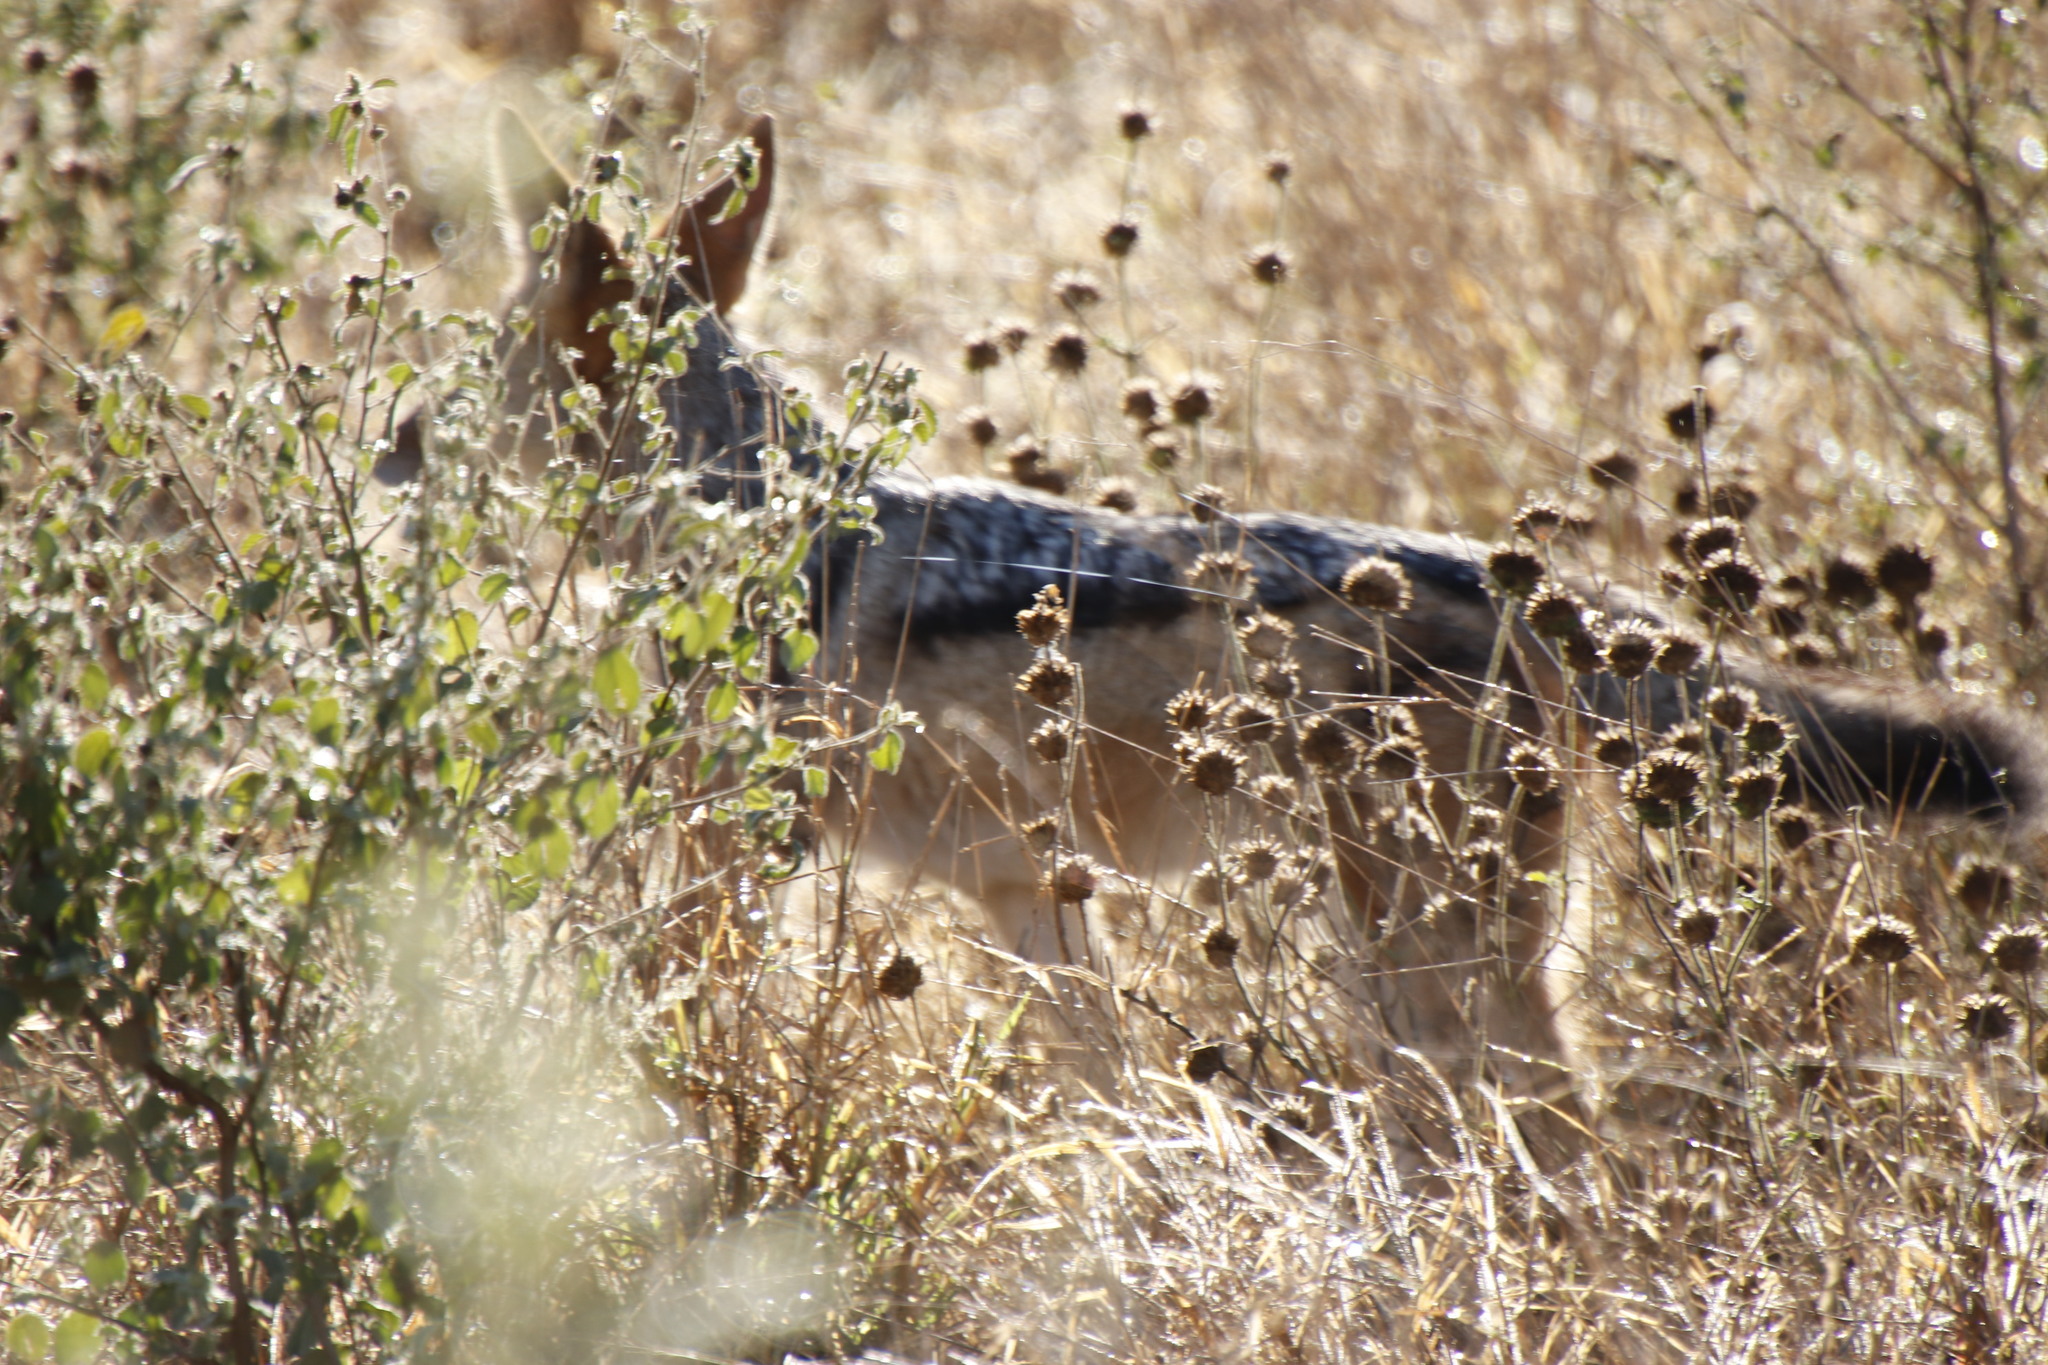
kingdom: Animalia
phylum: Chordata
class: Mammalia
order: Carnivora
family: Canidae
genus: Lupulella
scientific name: Lupulella
